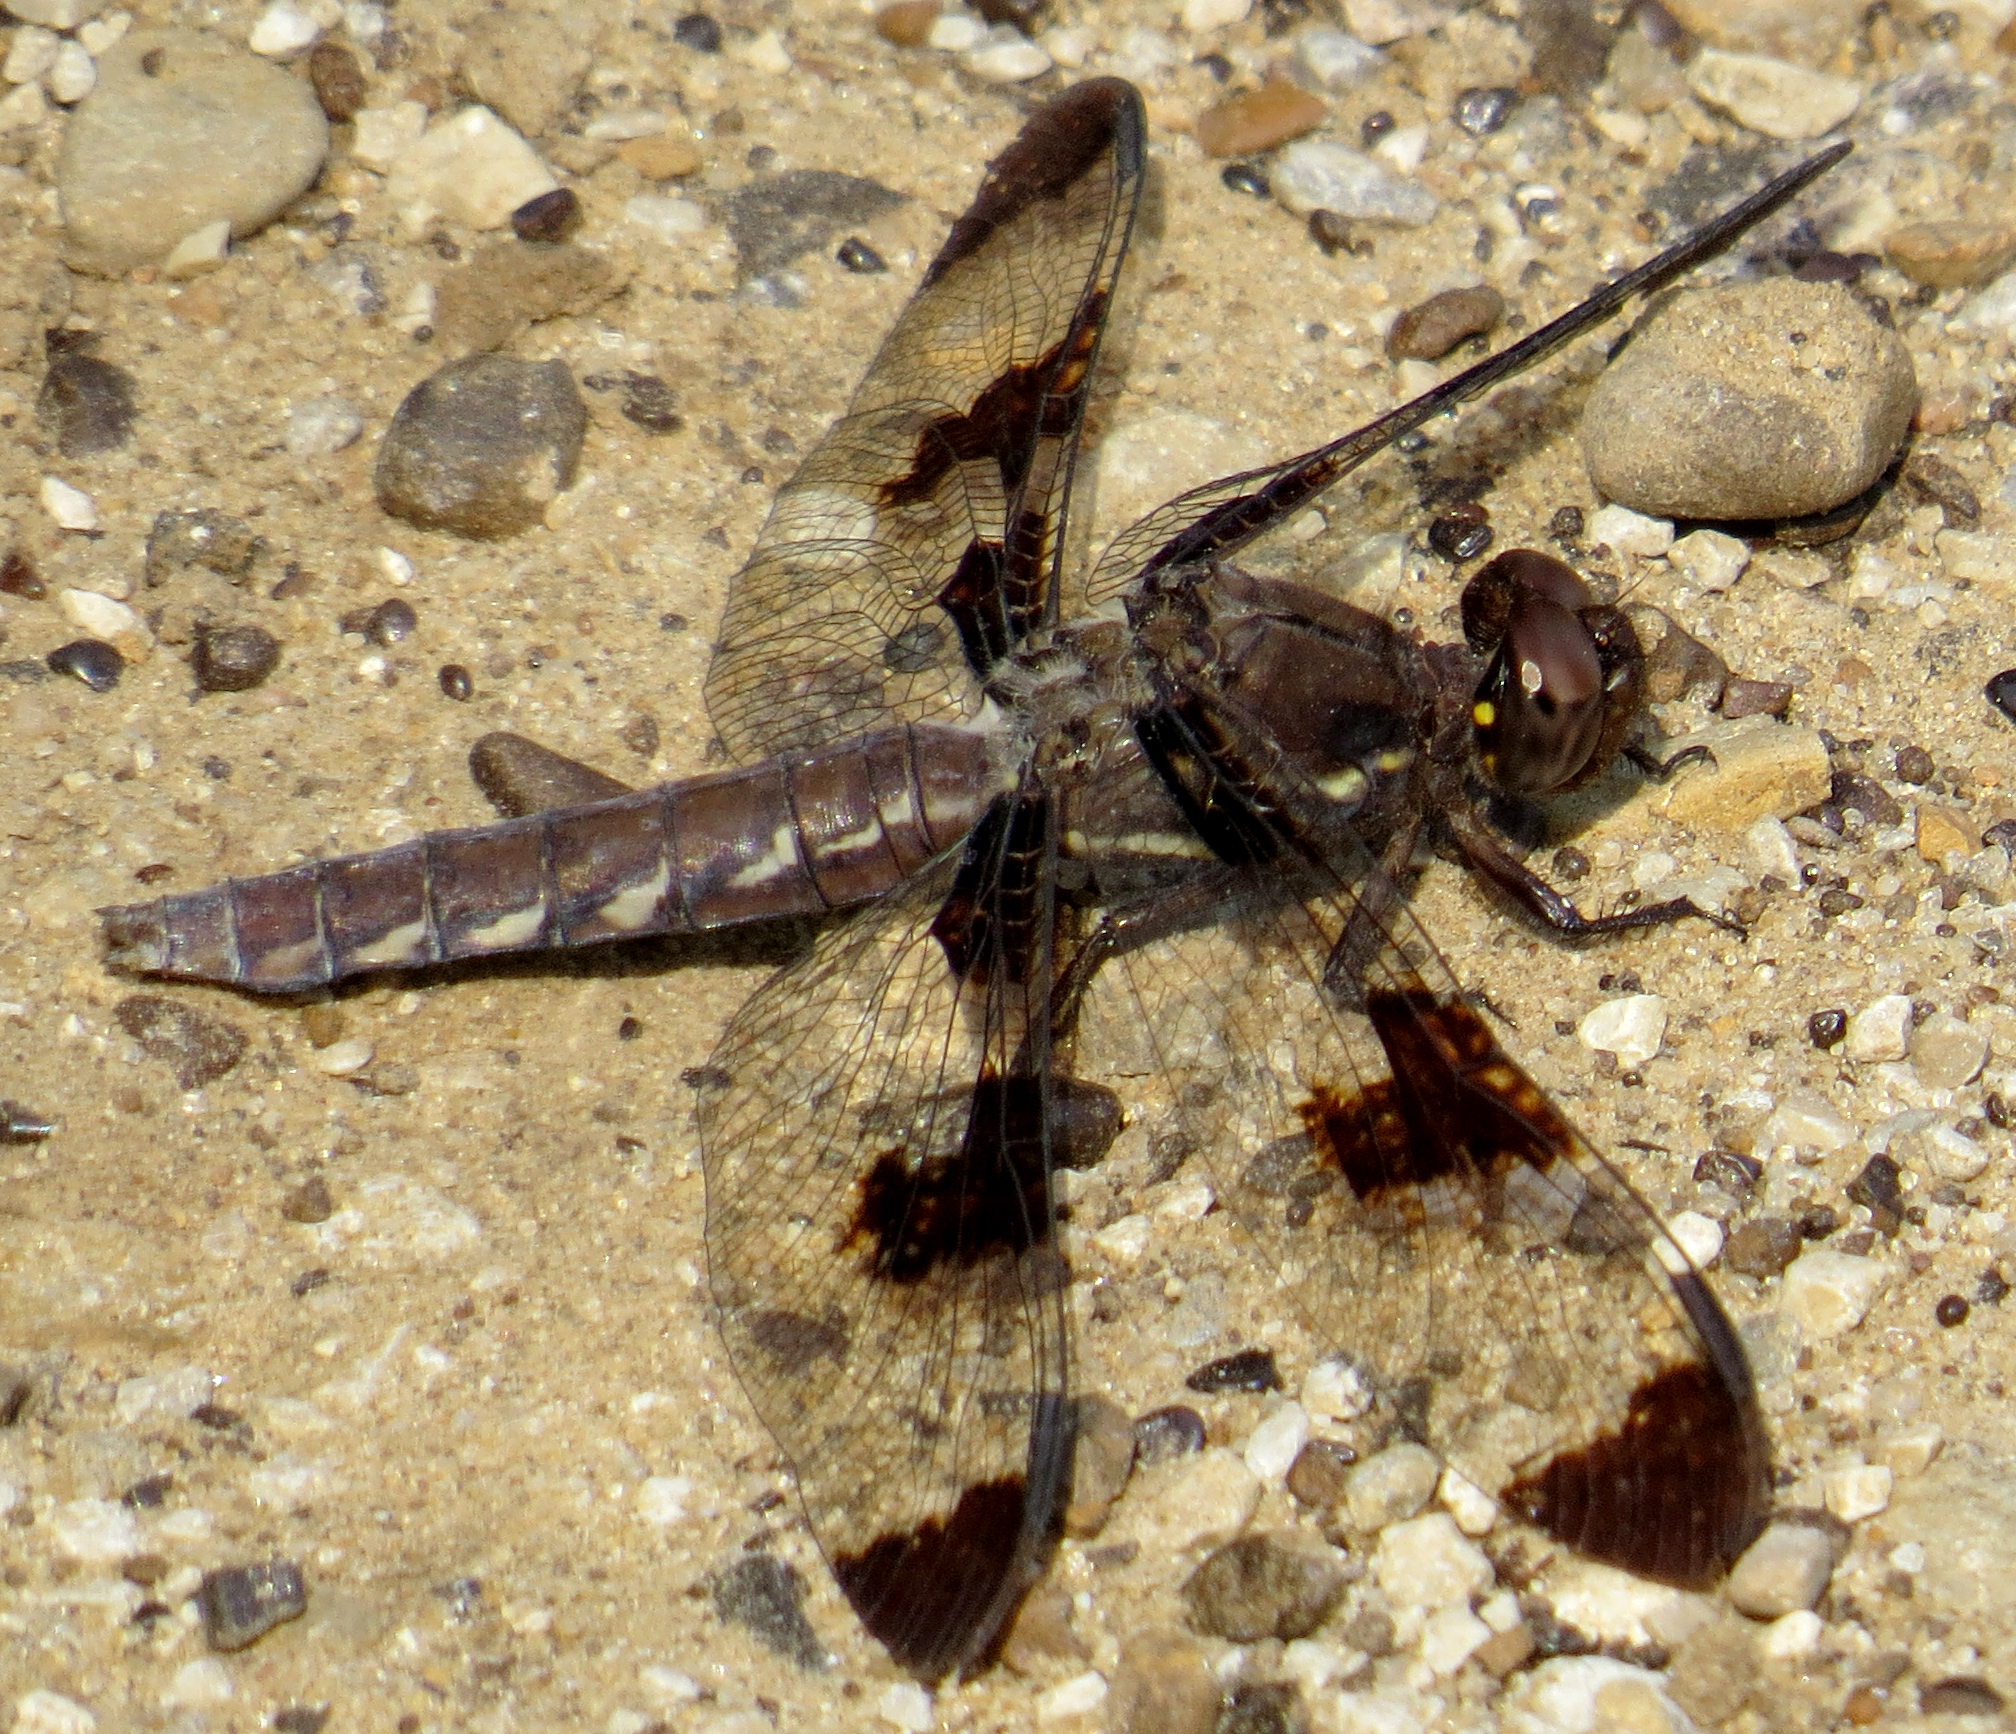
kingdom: Animalia
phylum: Arthropoda
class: Insecta
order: Odonata
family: Libellulidae
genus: Plathemis
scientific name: Plathemis lydia
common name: Common whitetail
